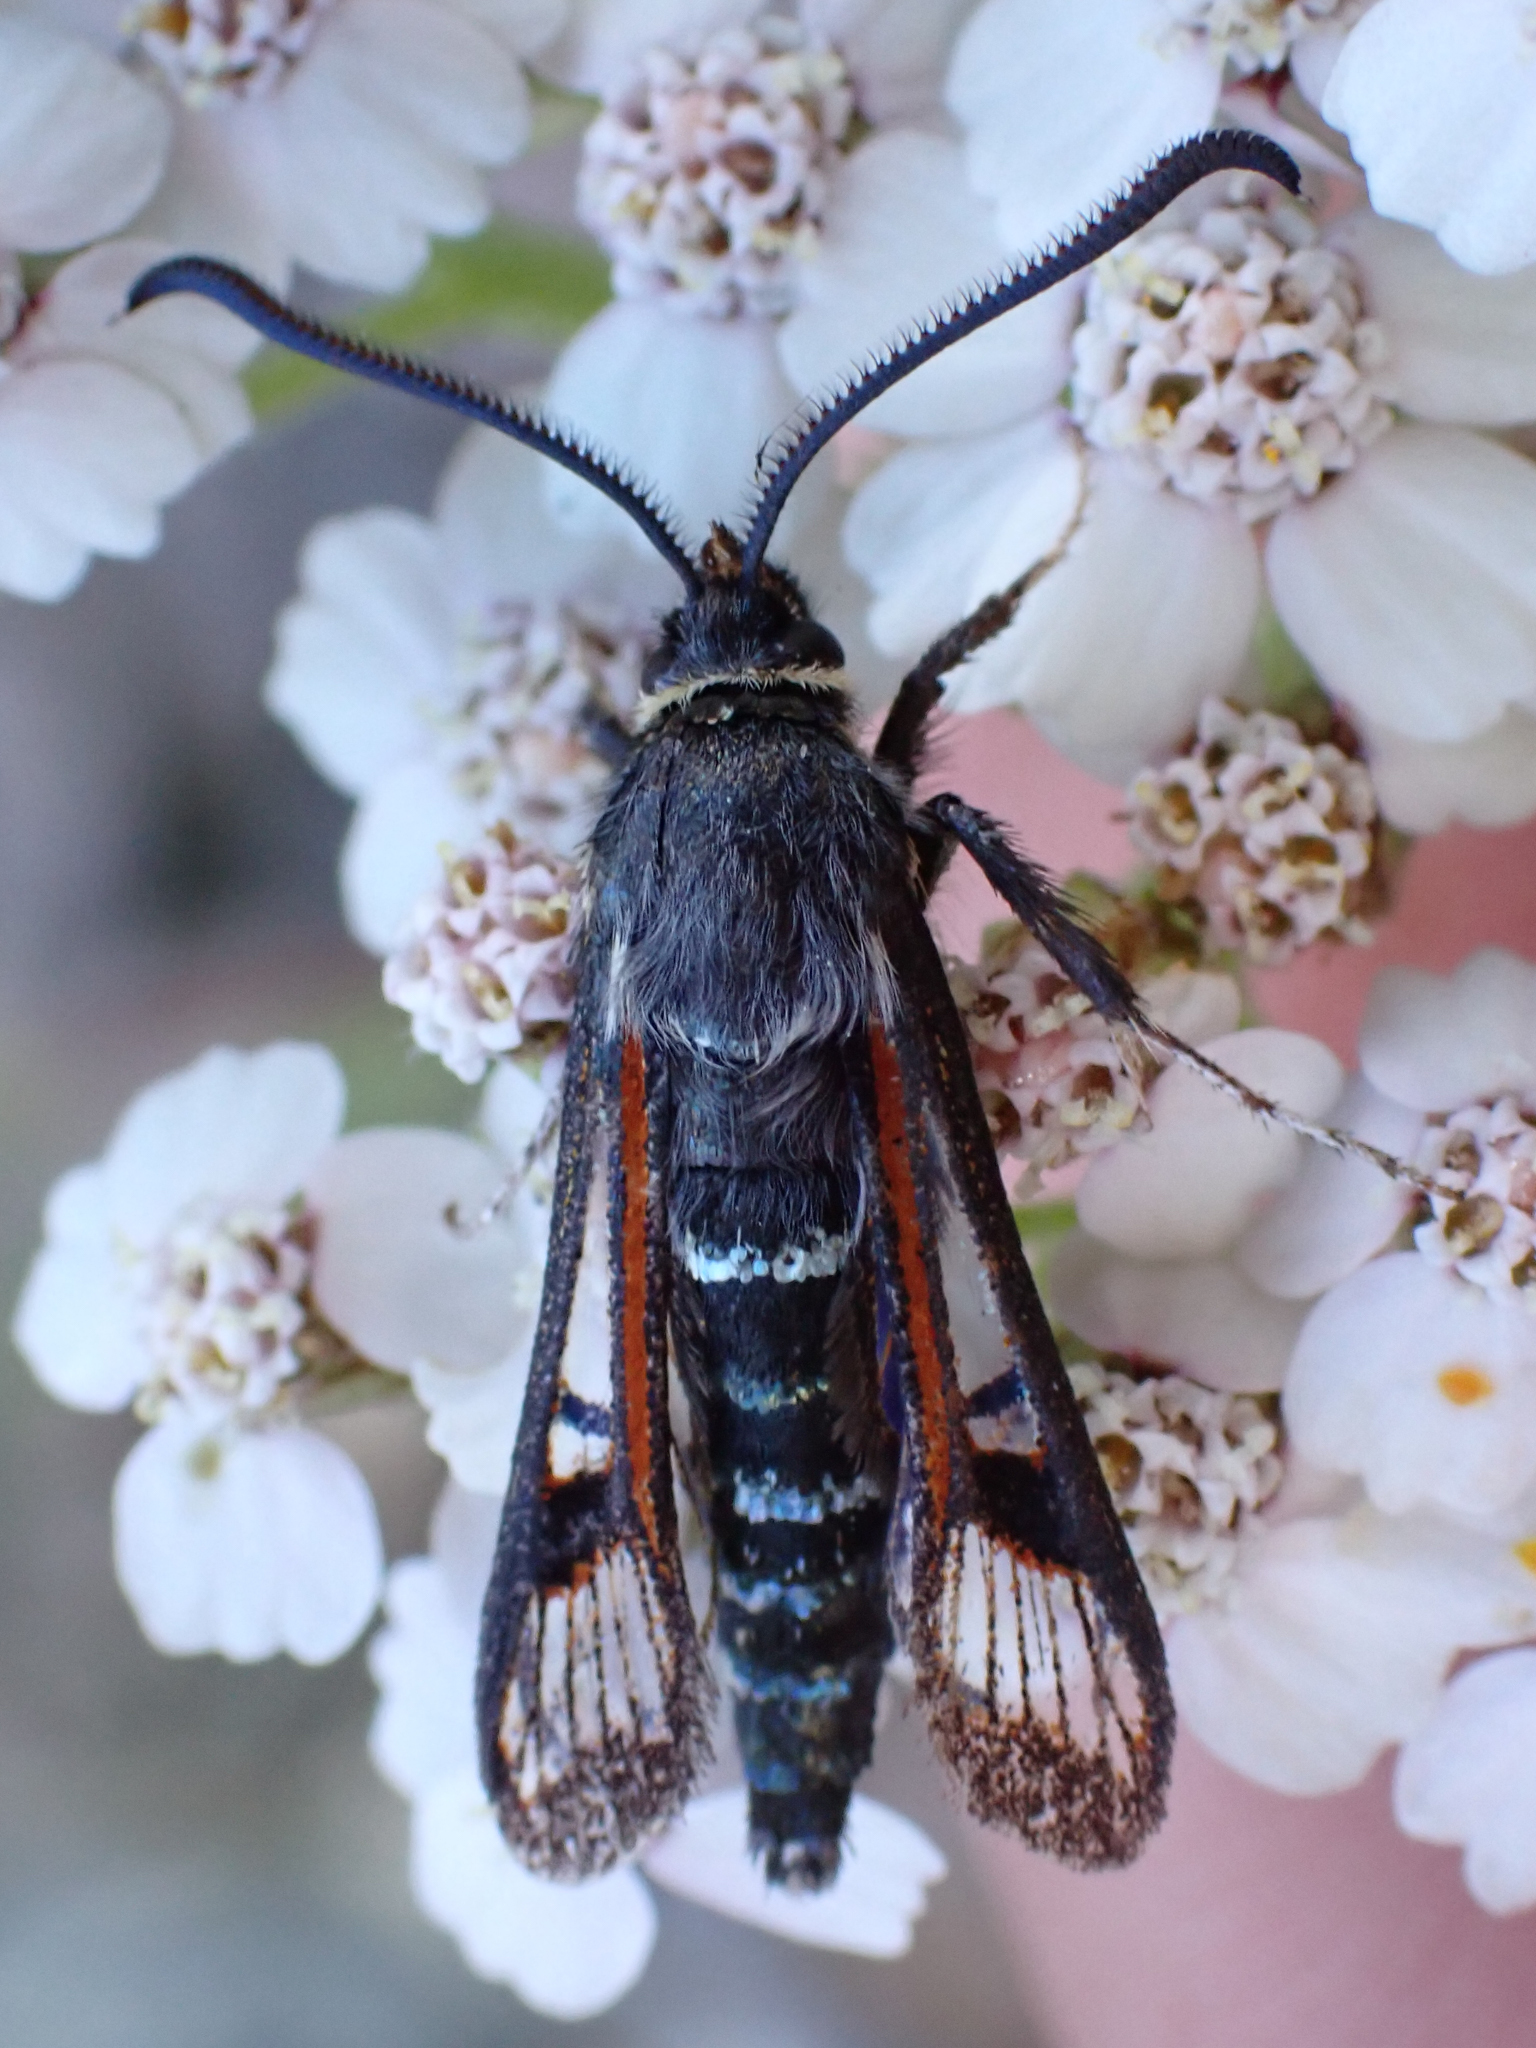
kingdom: Animalia
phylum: Arthropoda
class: Insecta
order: Lepidoptera
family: Sesiidae
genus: Albuna
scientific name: Albuna pyramidalis
